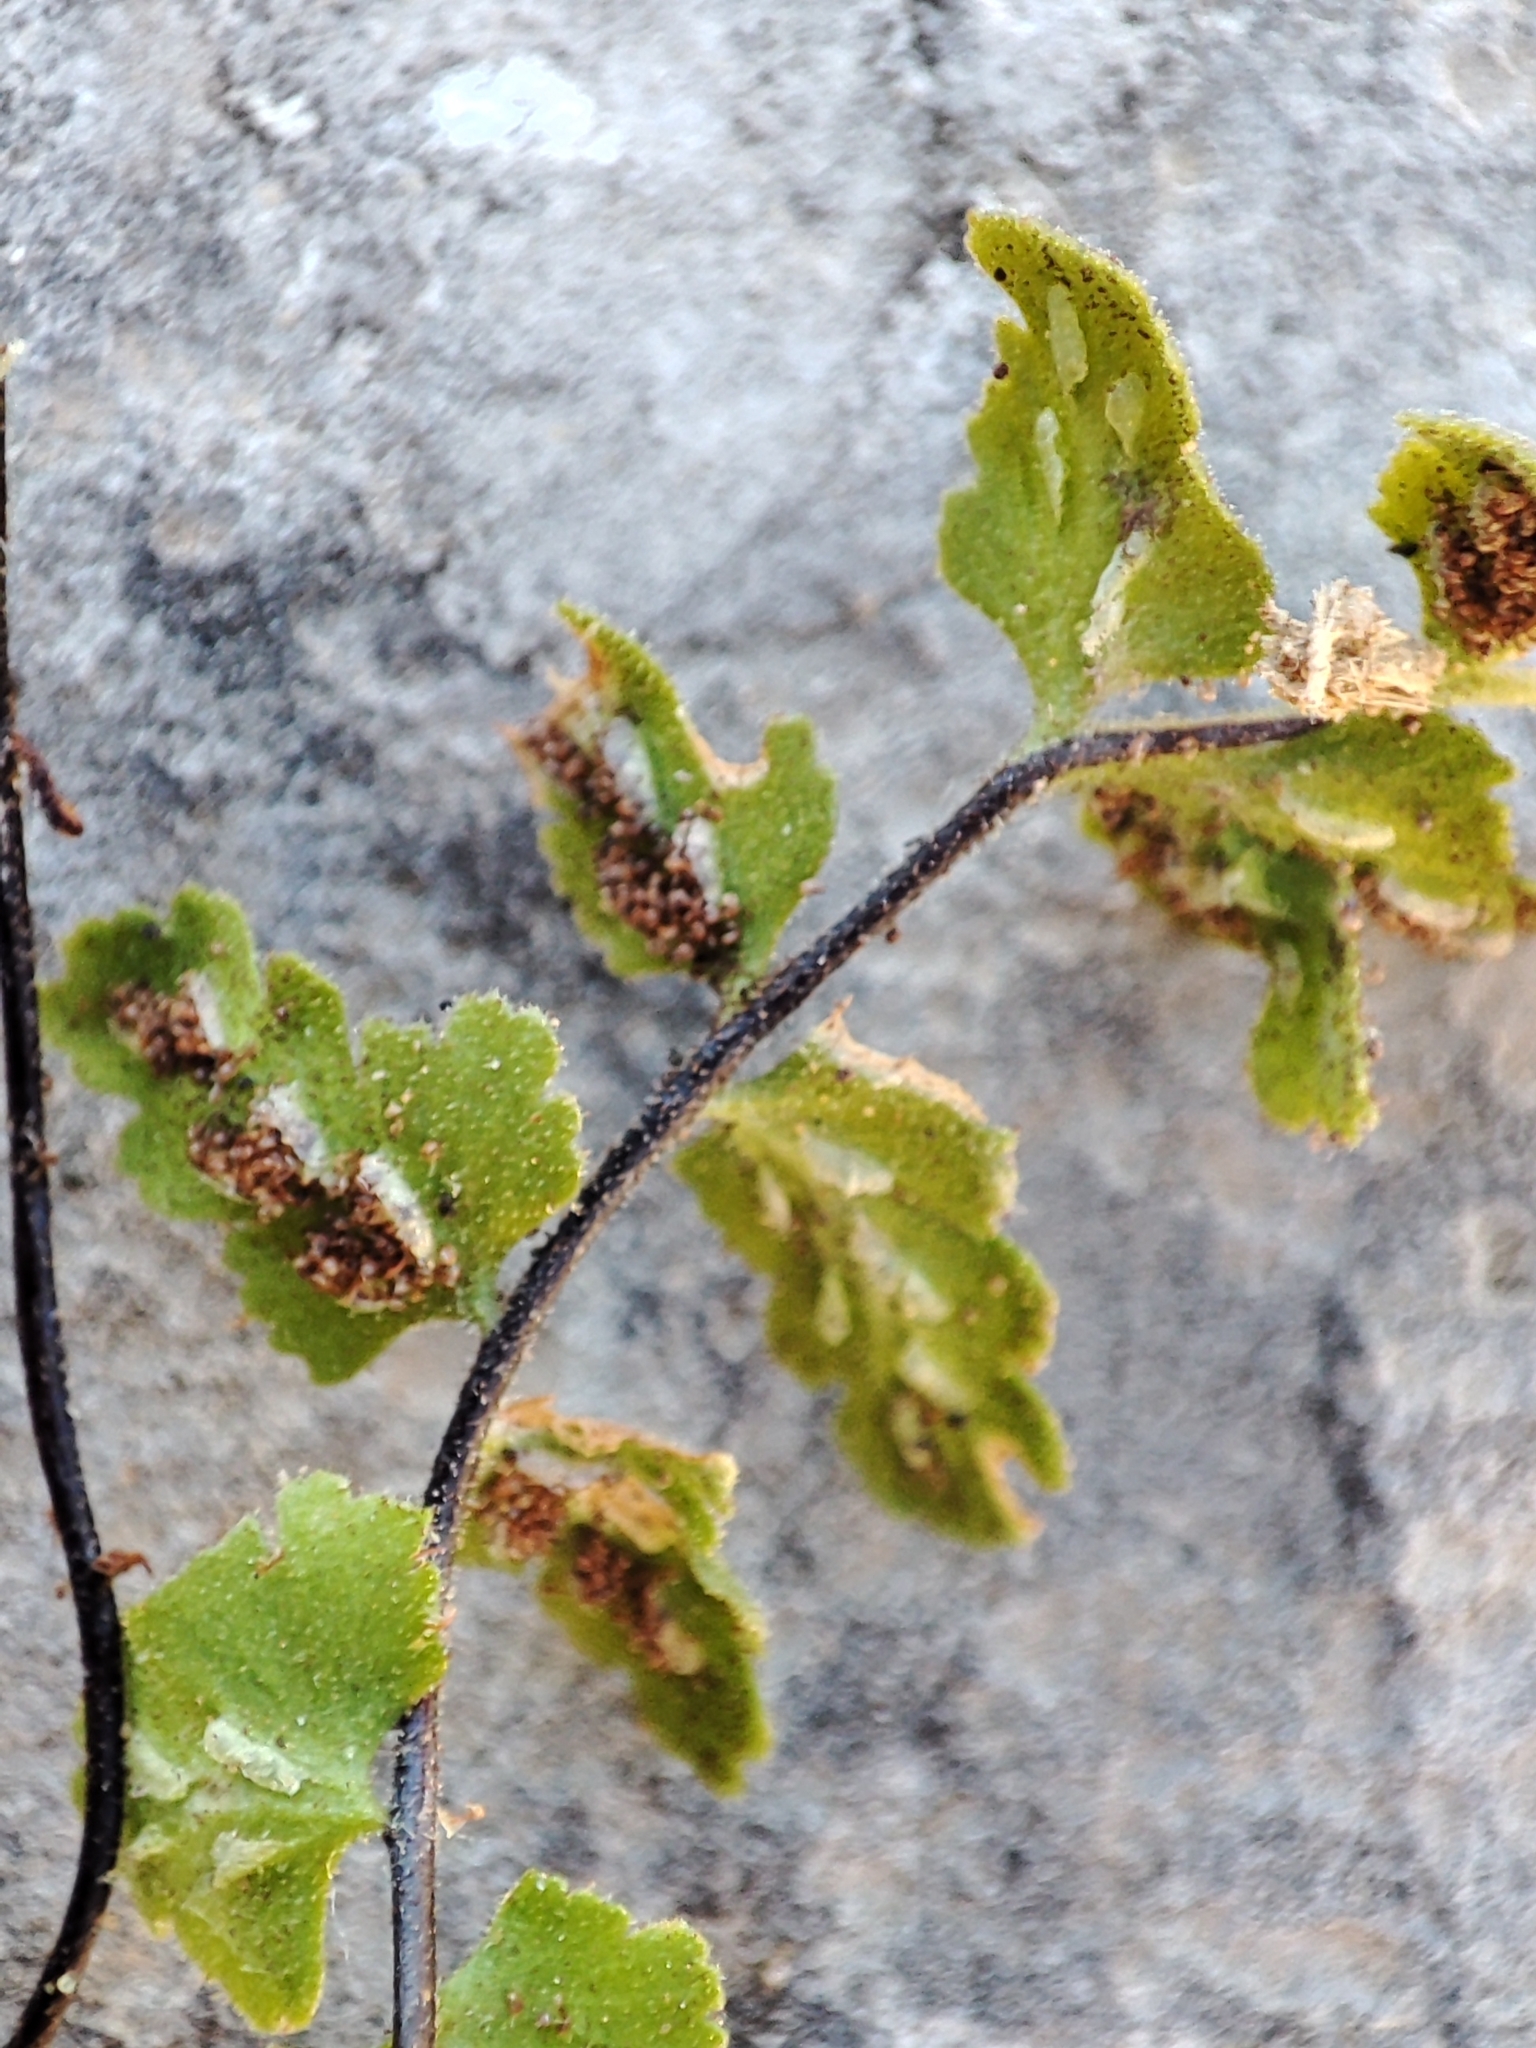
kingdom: Plantae
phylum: Tracheophyta
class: Polypodiopsida
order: Polypodiales
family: Aspleniaceae
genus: Asplenium
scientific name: Asplenium petrarchae
